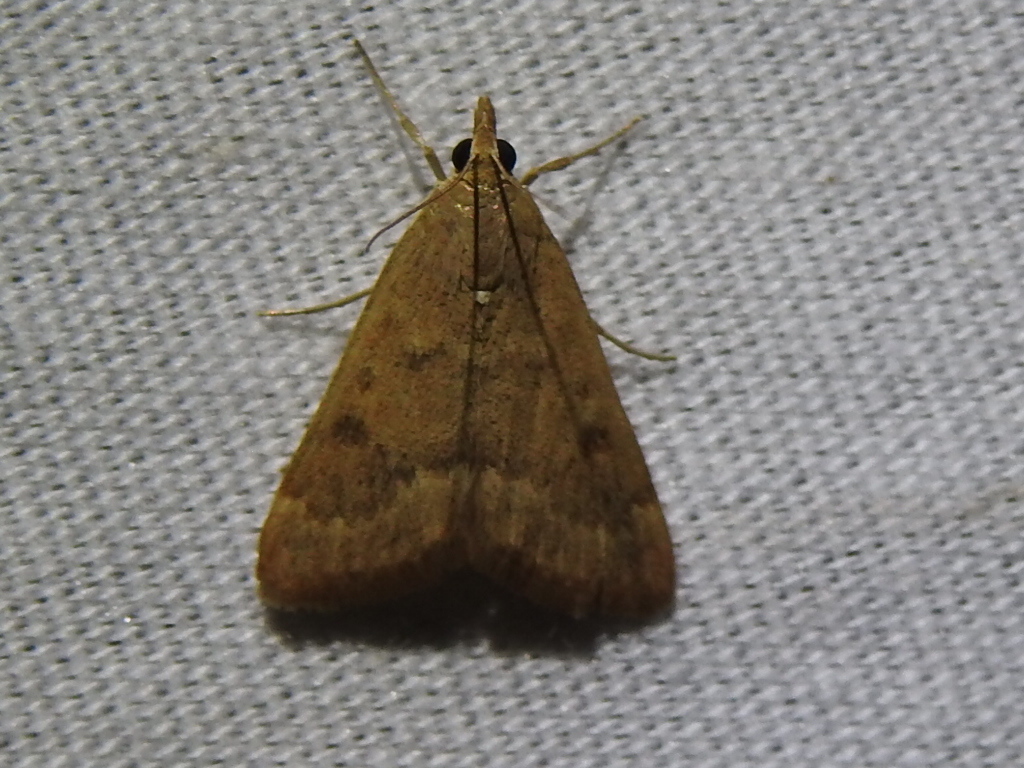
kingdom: Animalia
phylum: Arthropoda
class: Insecta
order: Lepidoptera
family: Crambidae
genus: Achyra
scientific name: Achyra rantalis
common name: Garden webworm
